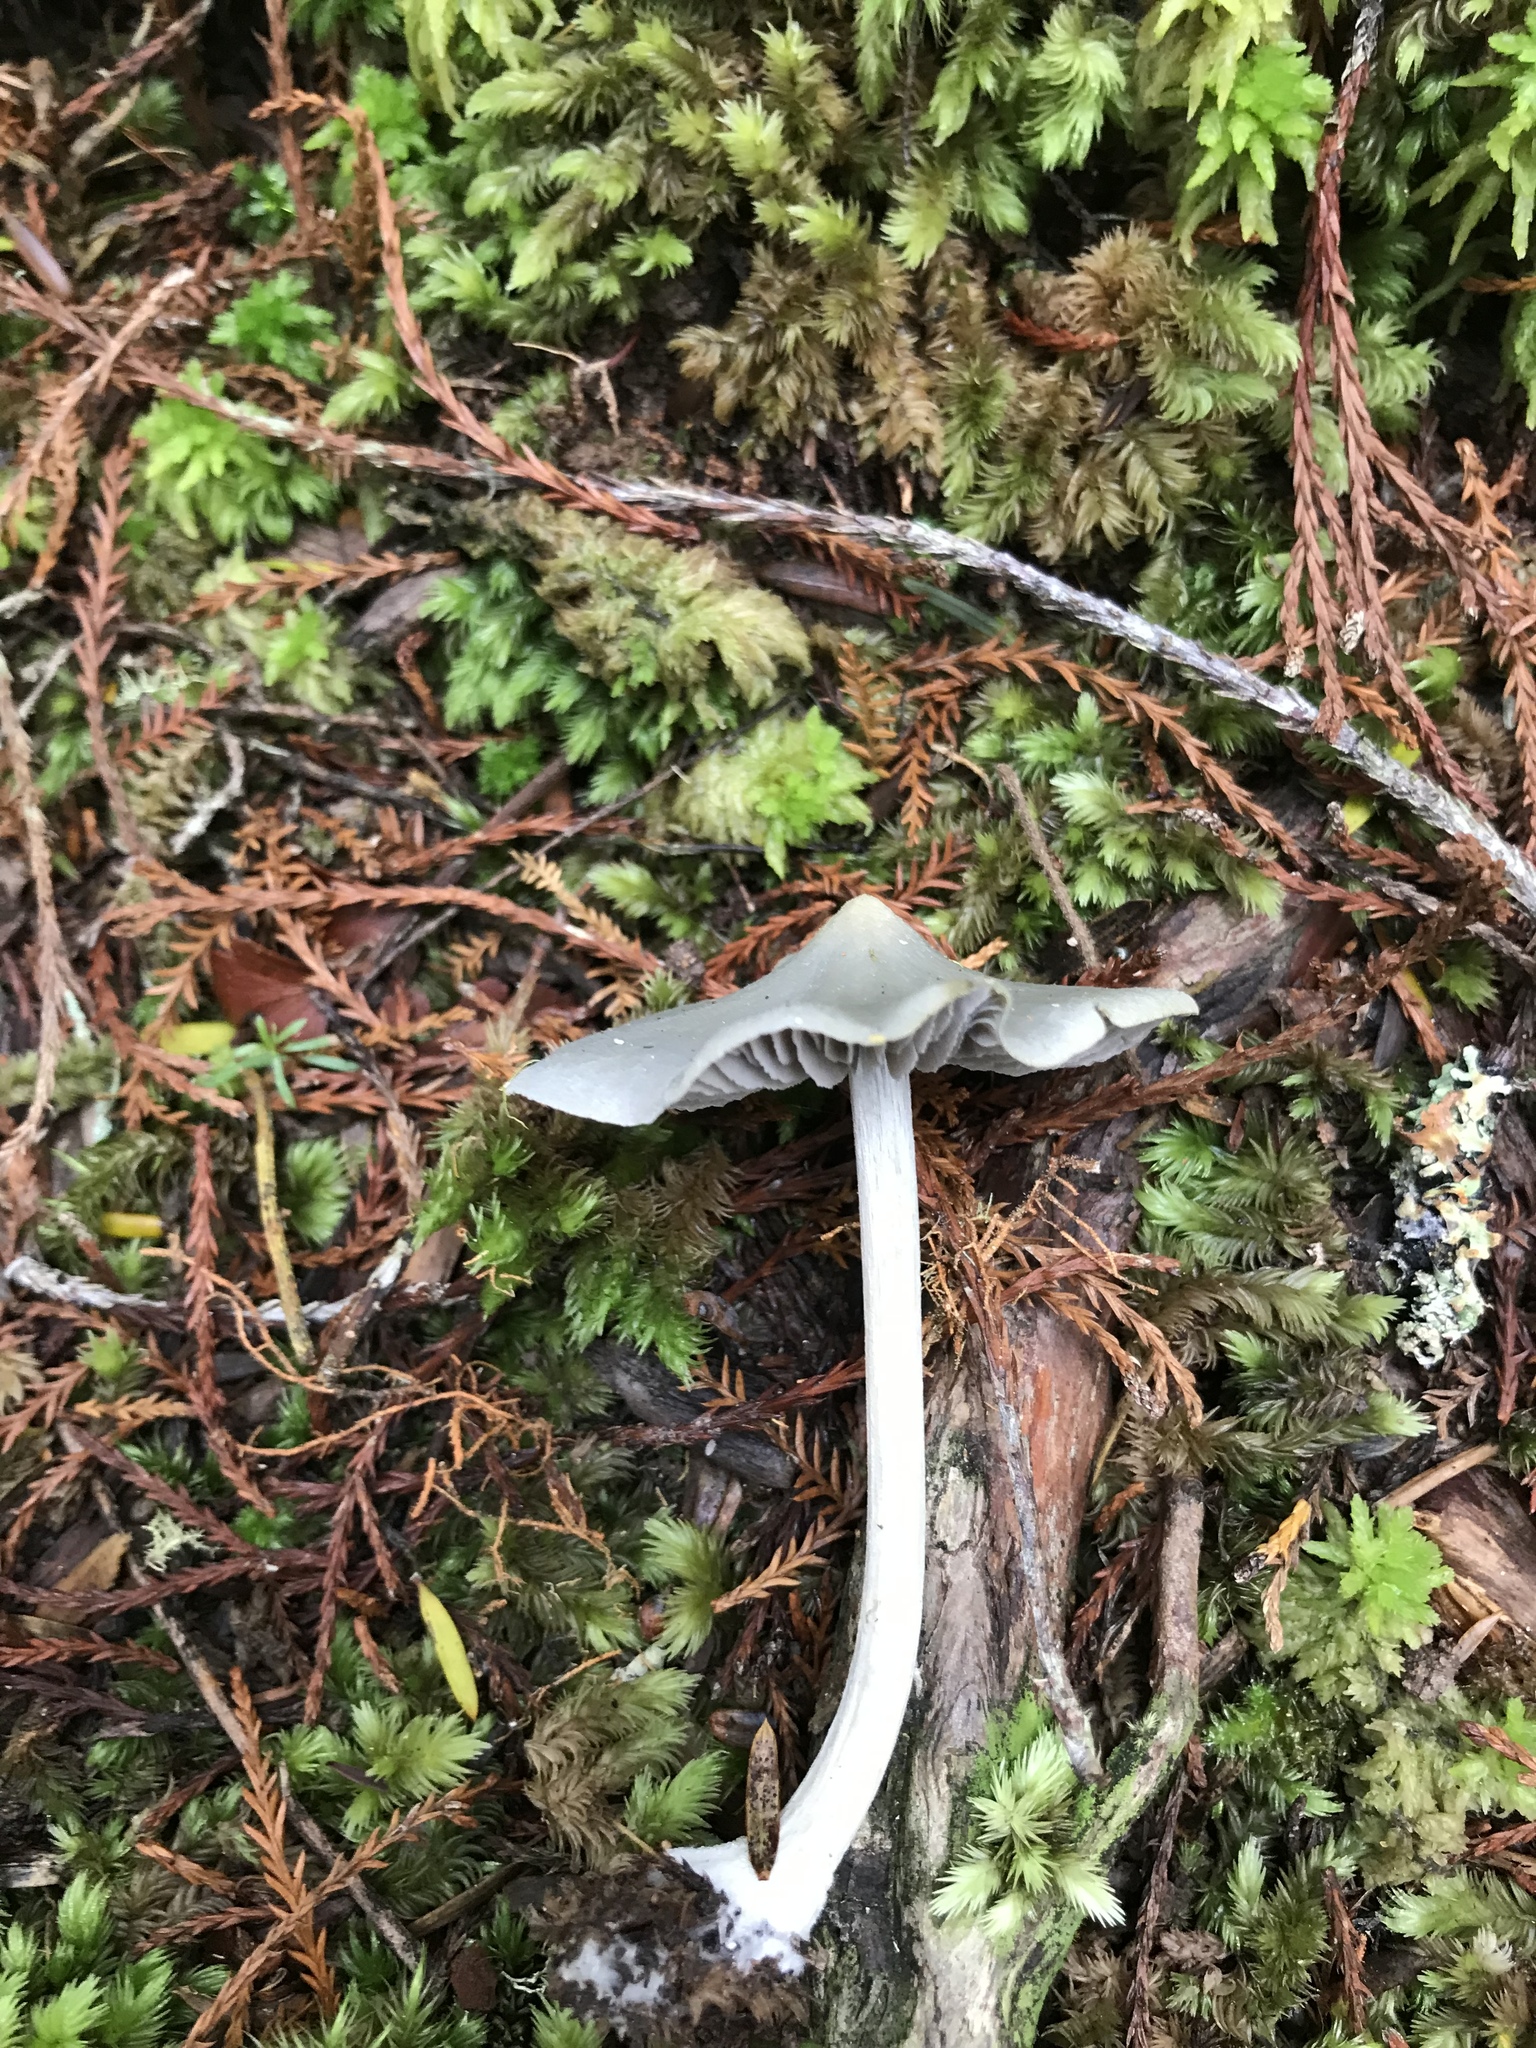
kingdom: Fungi
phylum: Basidiomycota
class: Agaricomycetes
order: Agaricales
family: Entolomataceae
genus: Entoloma
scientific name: Entoloma canoconicum
